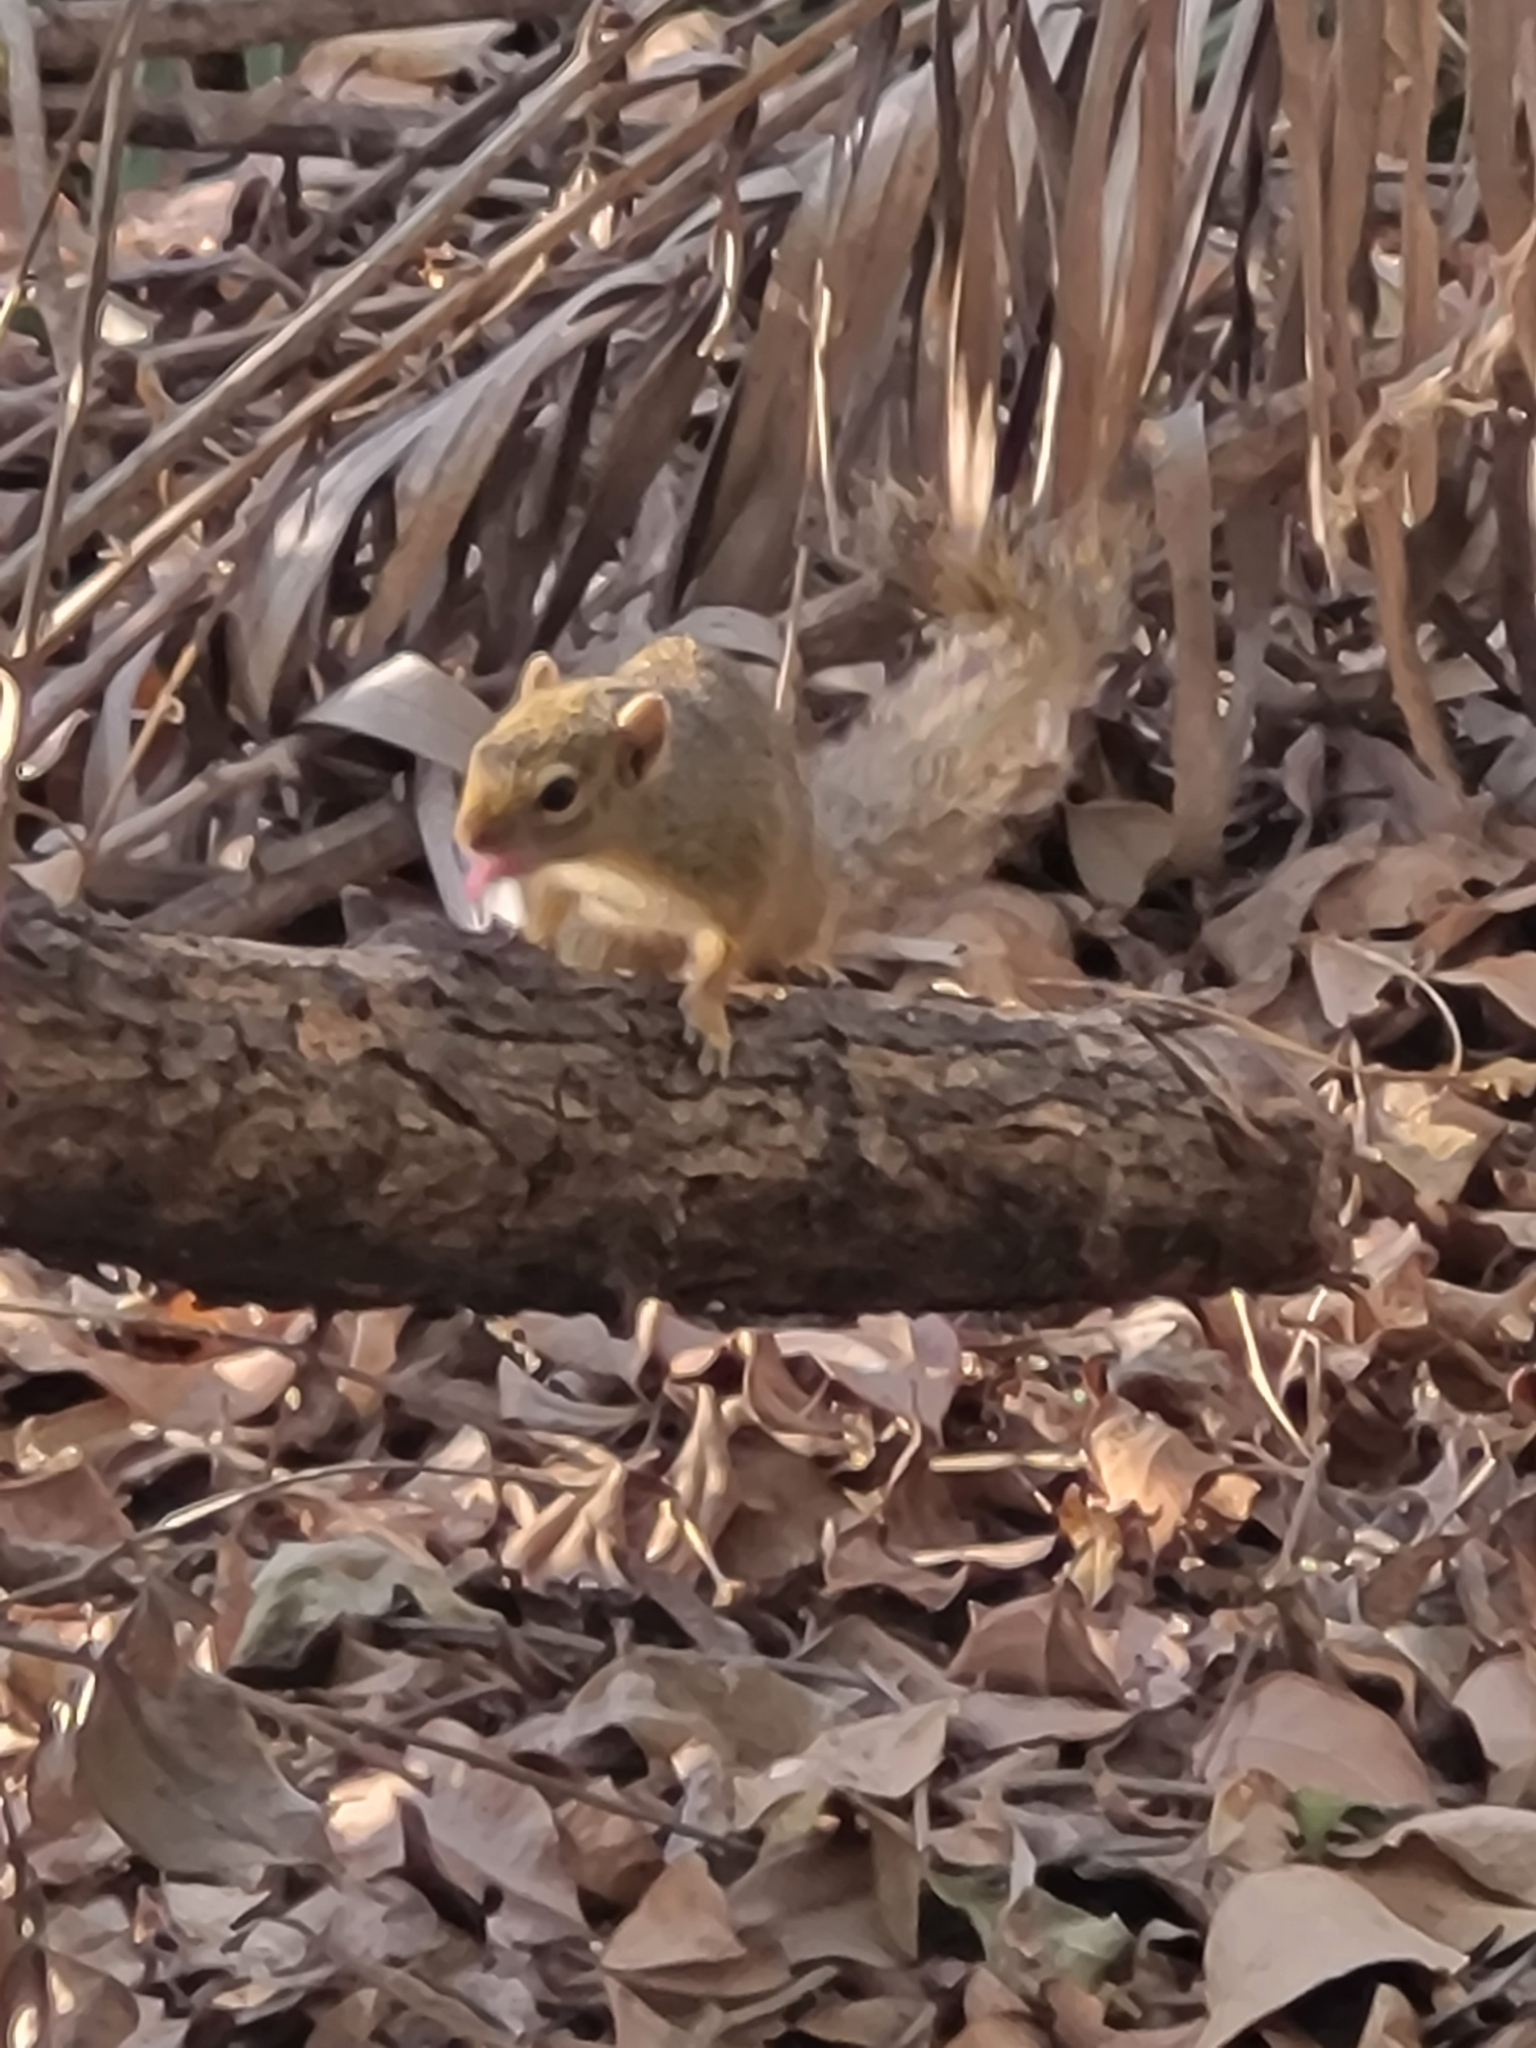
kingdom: Animalia
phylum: Chordata
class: Mammalia
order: Rodentia
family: Sciuridae
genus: Paraxerus
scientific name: Paraxerus ochraceus
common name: Ochre bush squirrel
